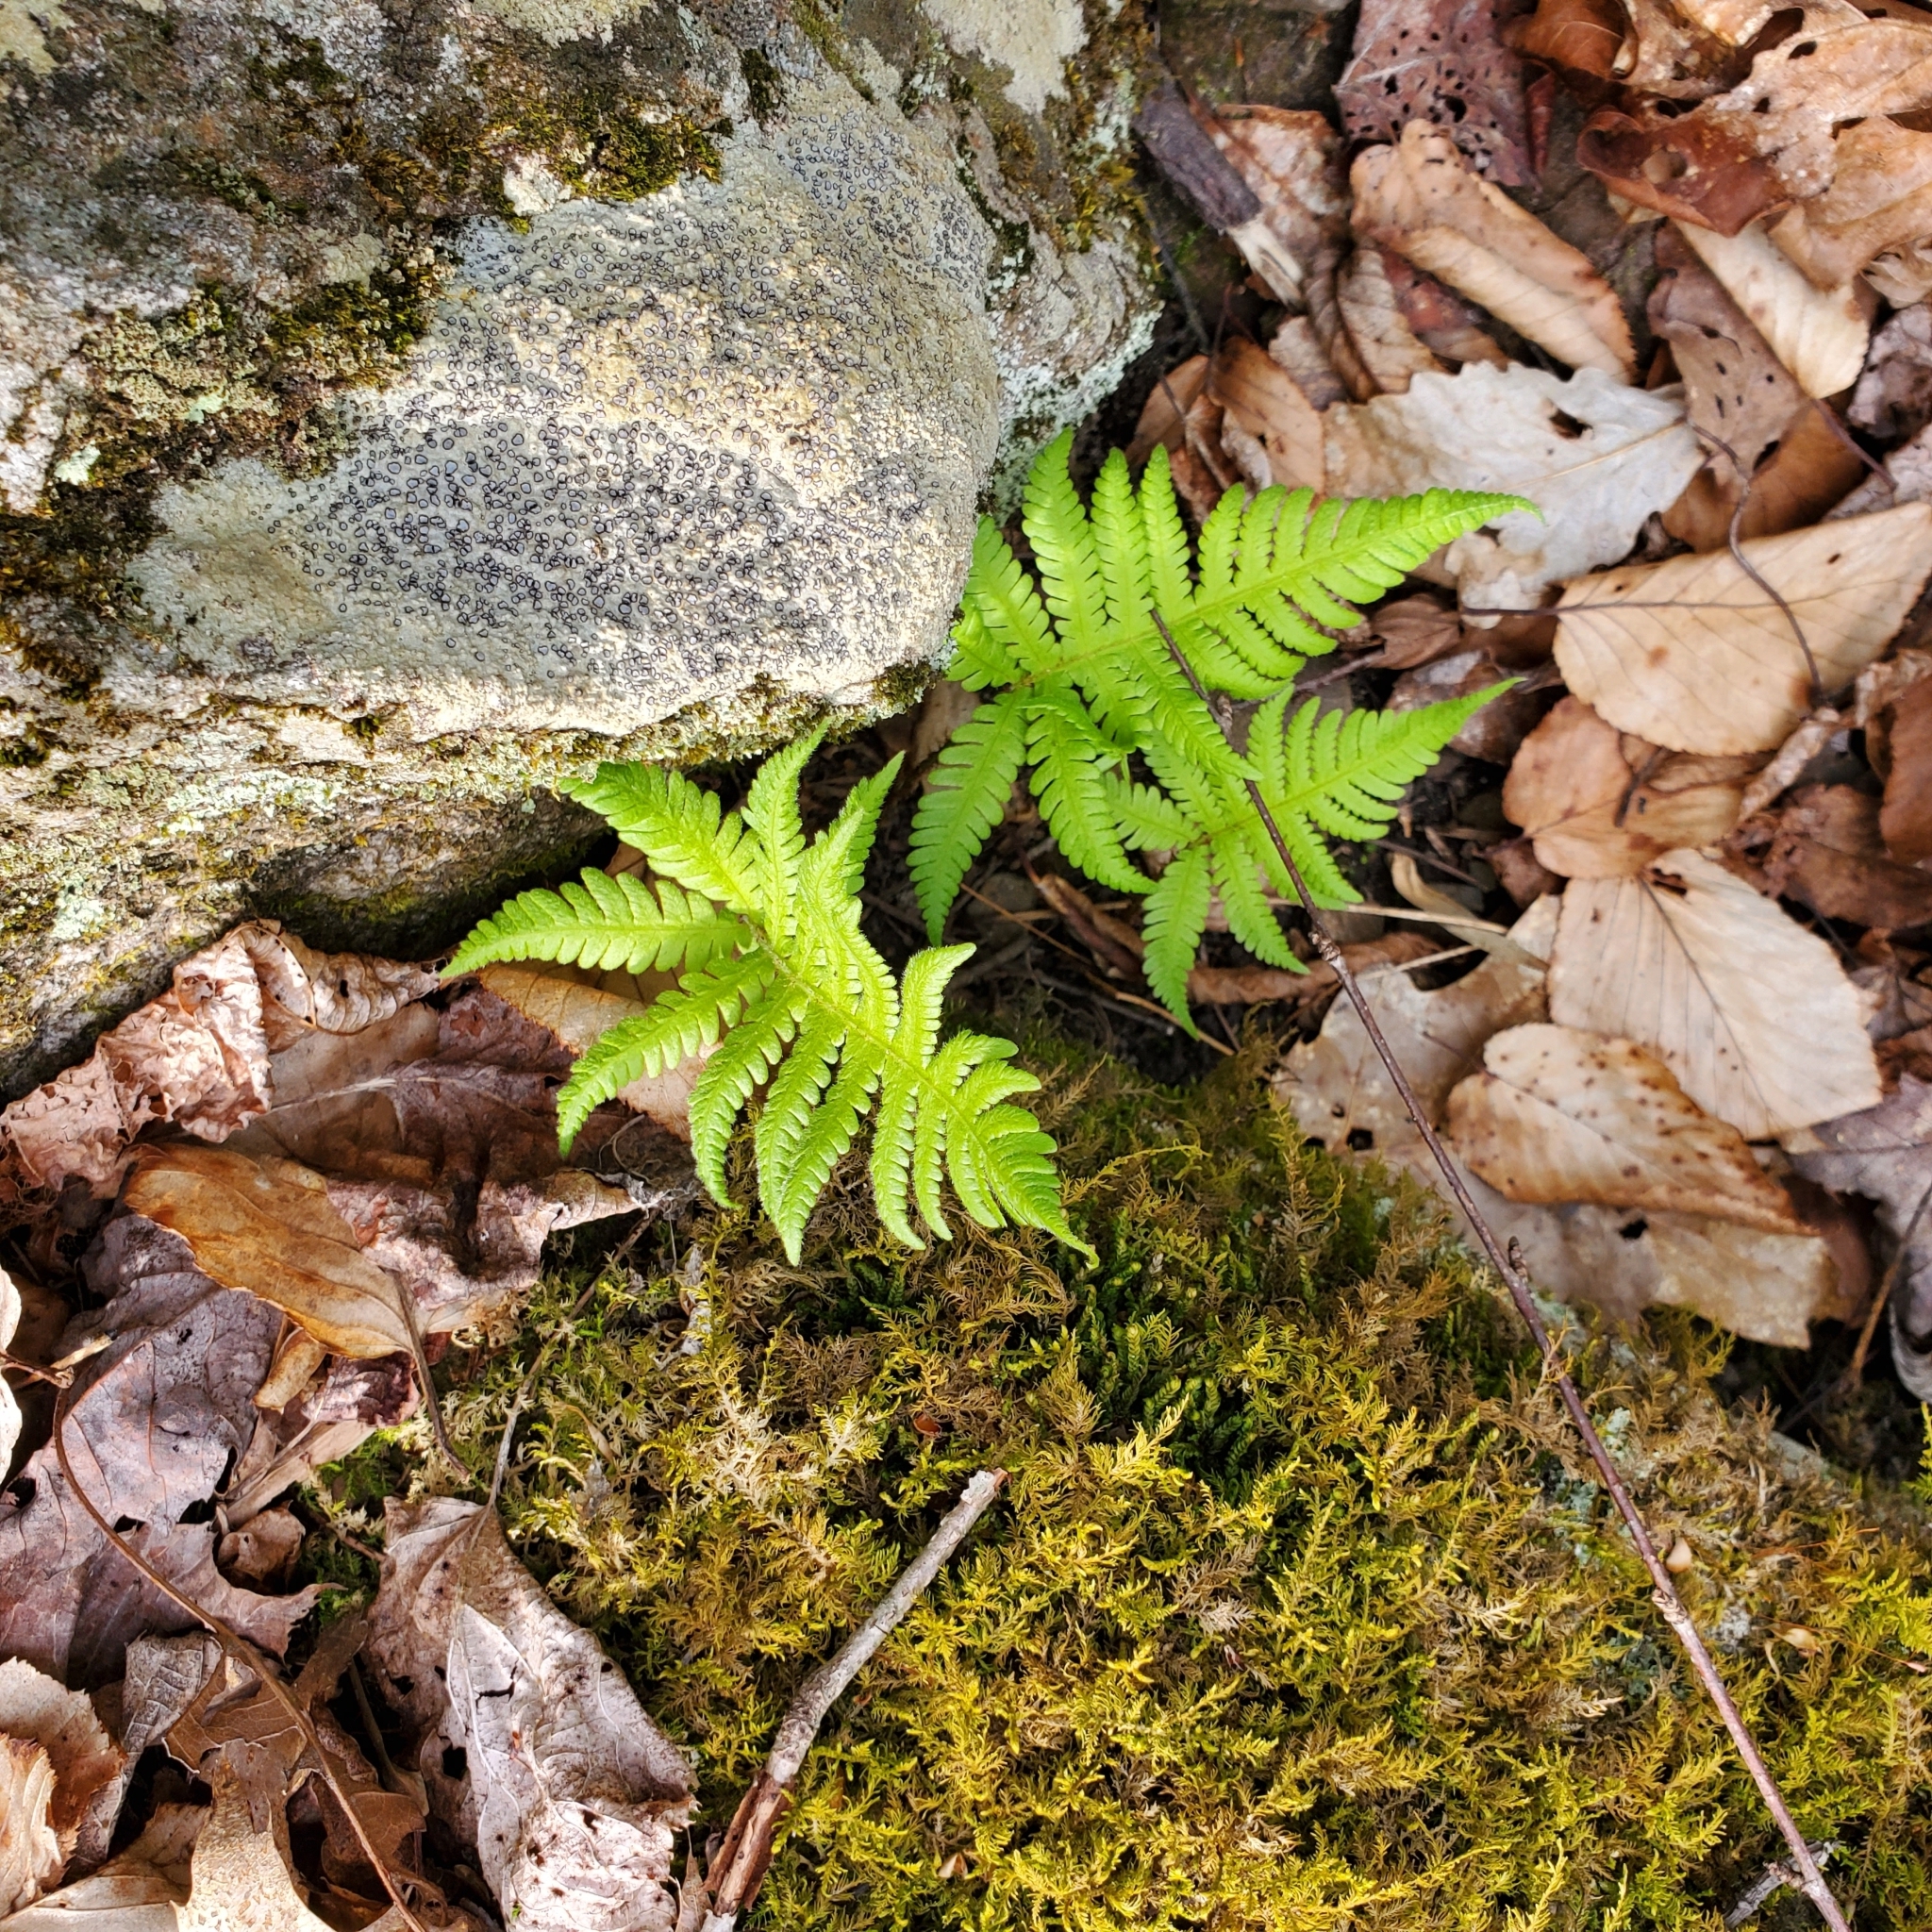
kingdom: Plantae
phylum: Tracheophyta
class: Polypodiopsida
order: Polypodiales
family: Thelypteridaceae
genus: Phegopteris
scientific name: Phegopteris connectilis
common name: Beech fern
